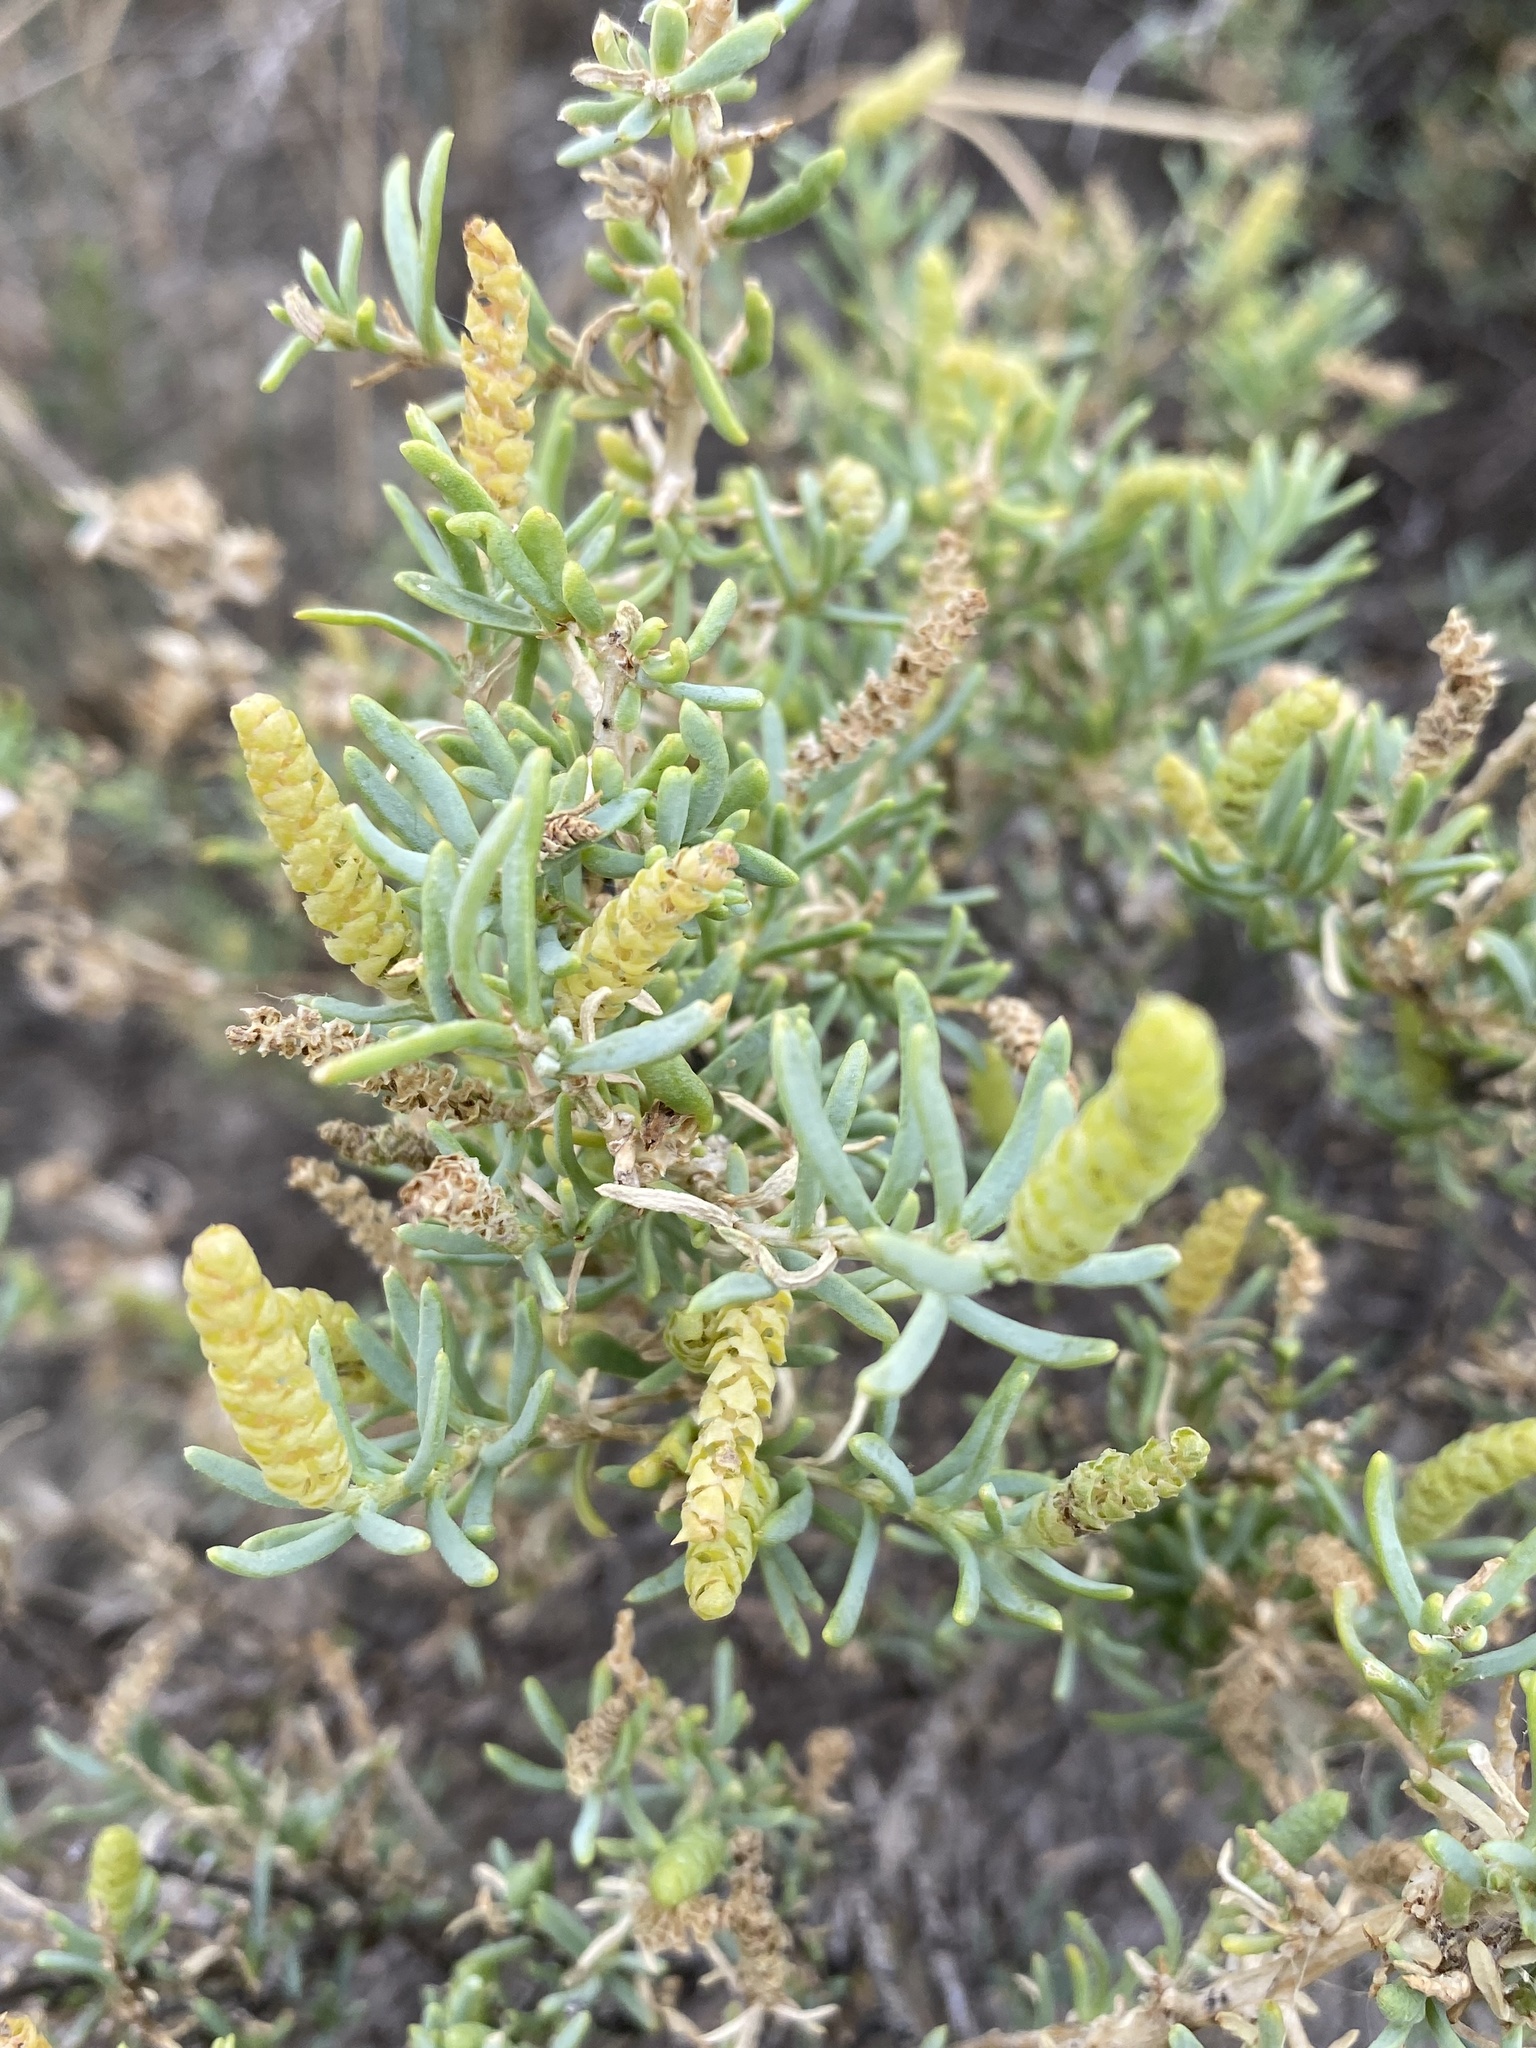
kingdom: Plantae
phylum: Tracheophyta
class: Magnoliopsida
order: Caryophyllales
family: Sarcobataceae
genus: Sarcobatus
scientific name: Sarcobatus vermiculatus
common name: Greasewood
